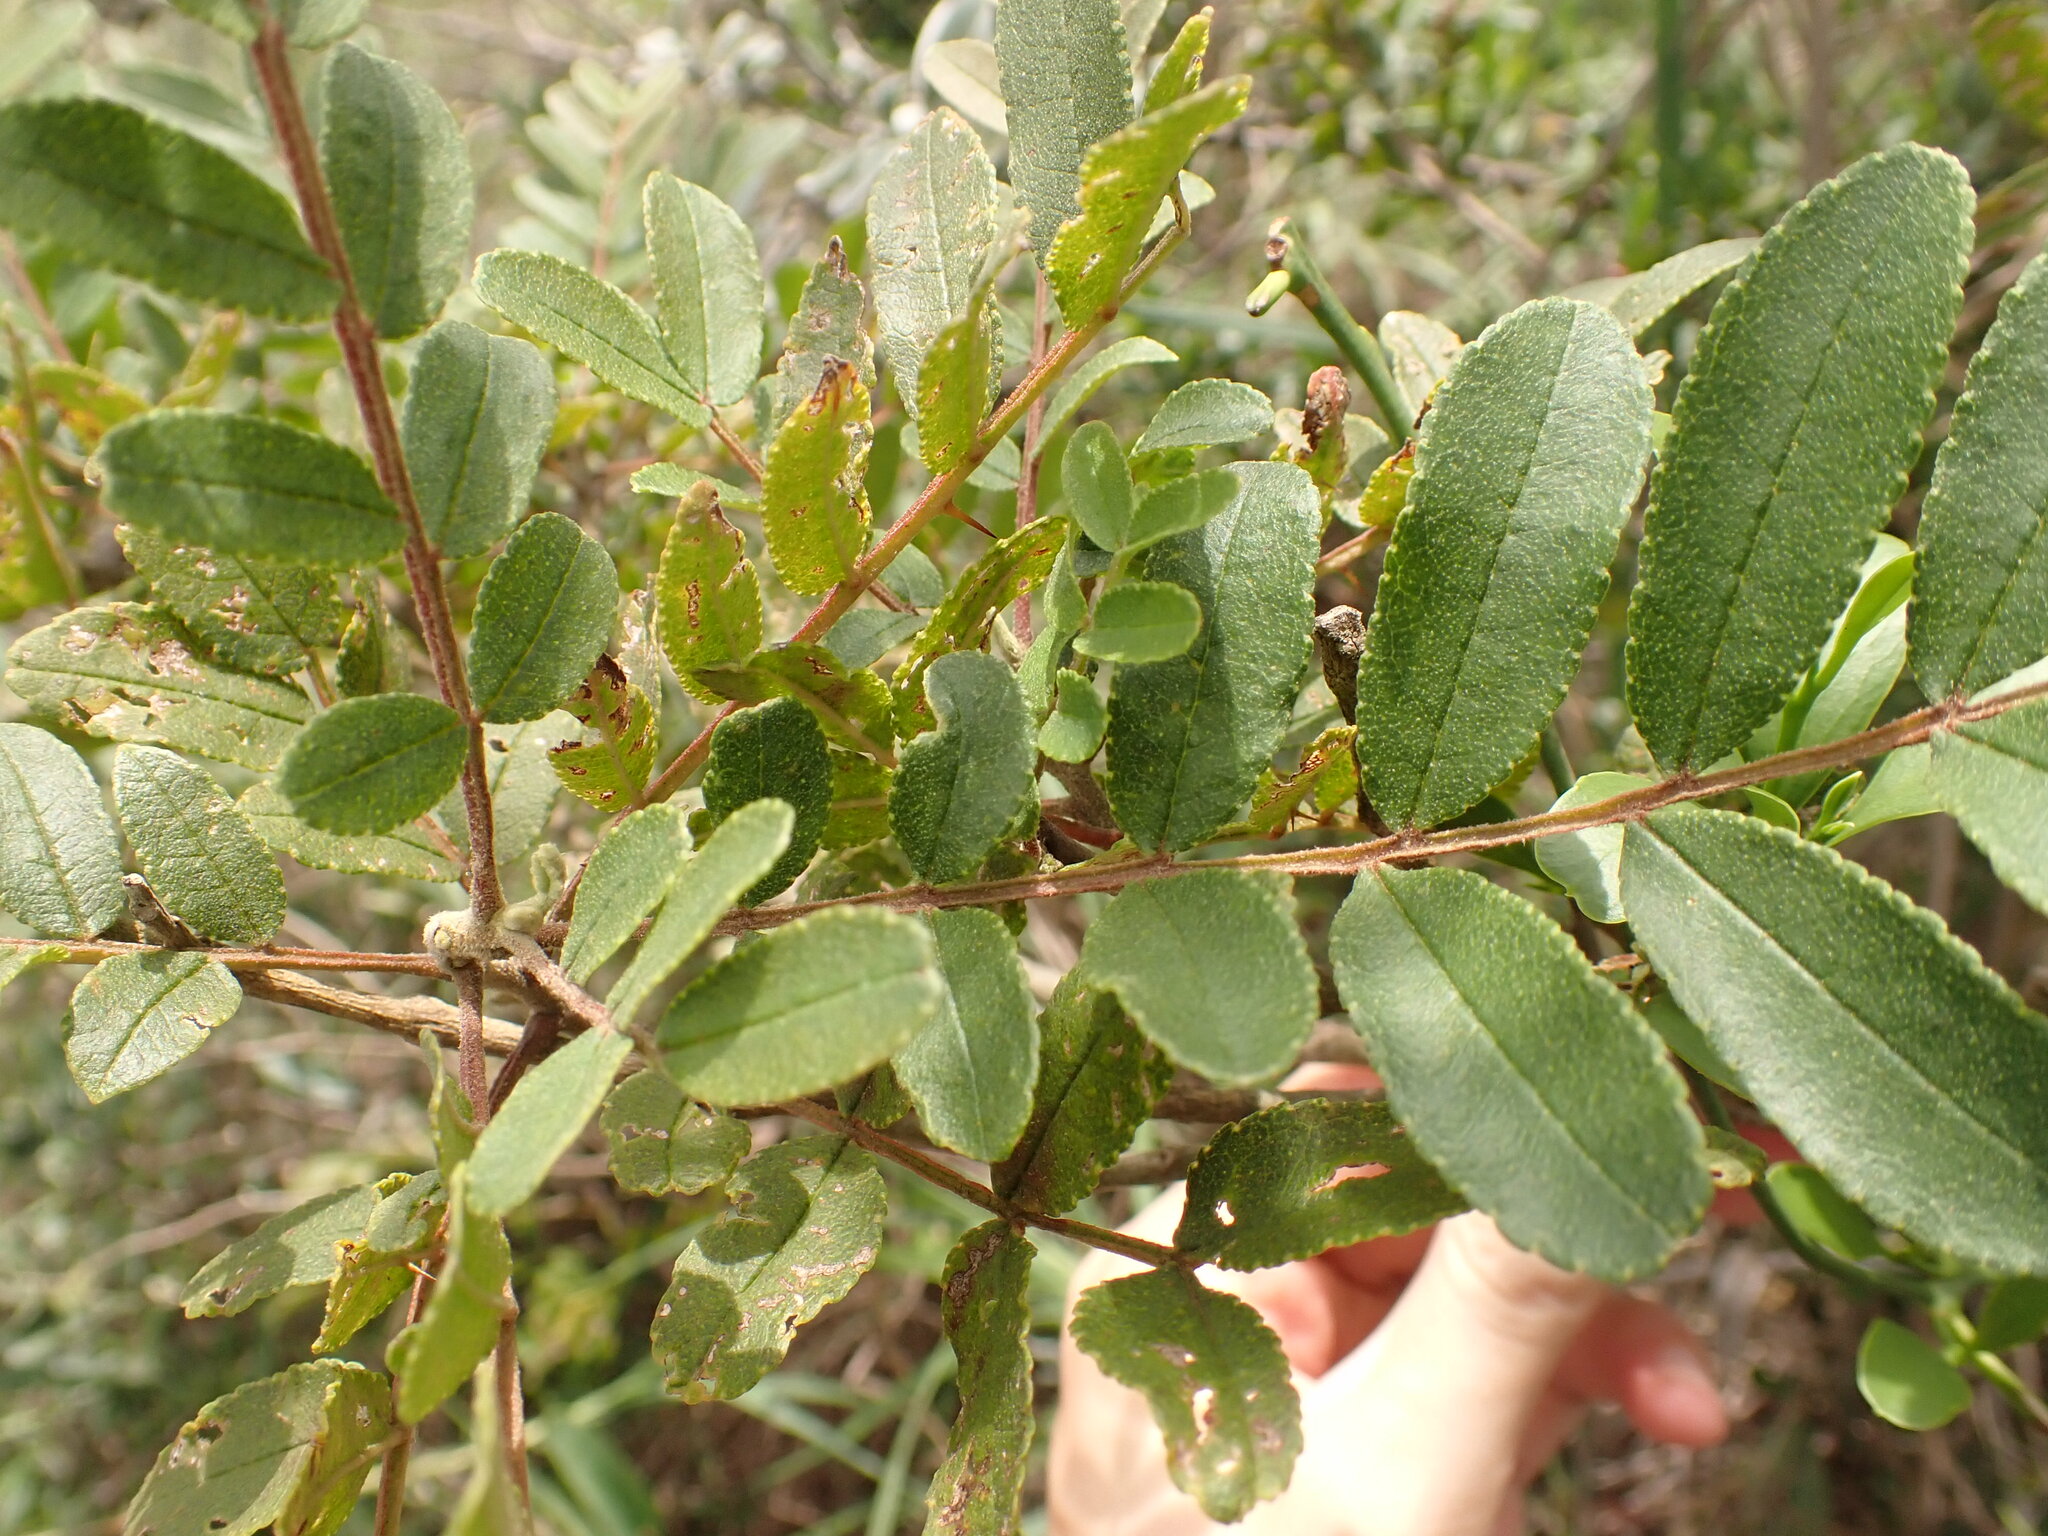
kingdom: Plantae
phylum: Tracheophyta
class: Magnoliopsida
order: Sapindales
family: Rutaceae
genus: Zanthoxylum
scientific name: Zanthoxylum rhoifolium
